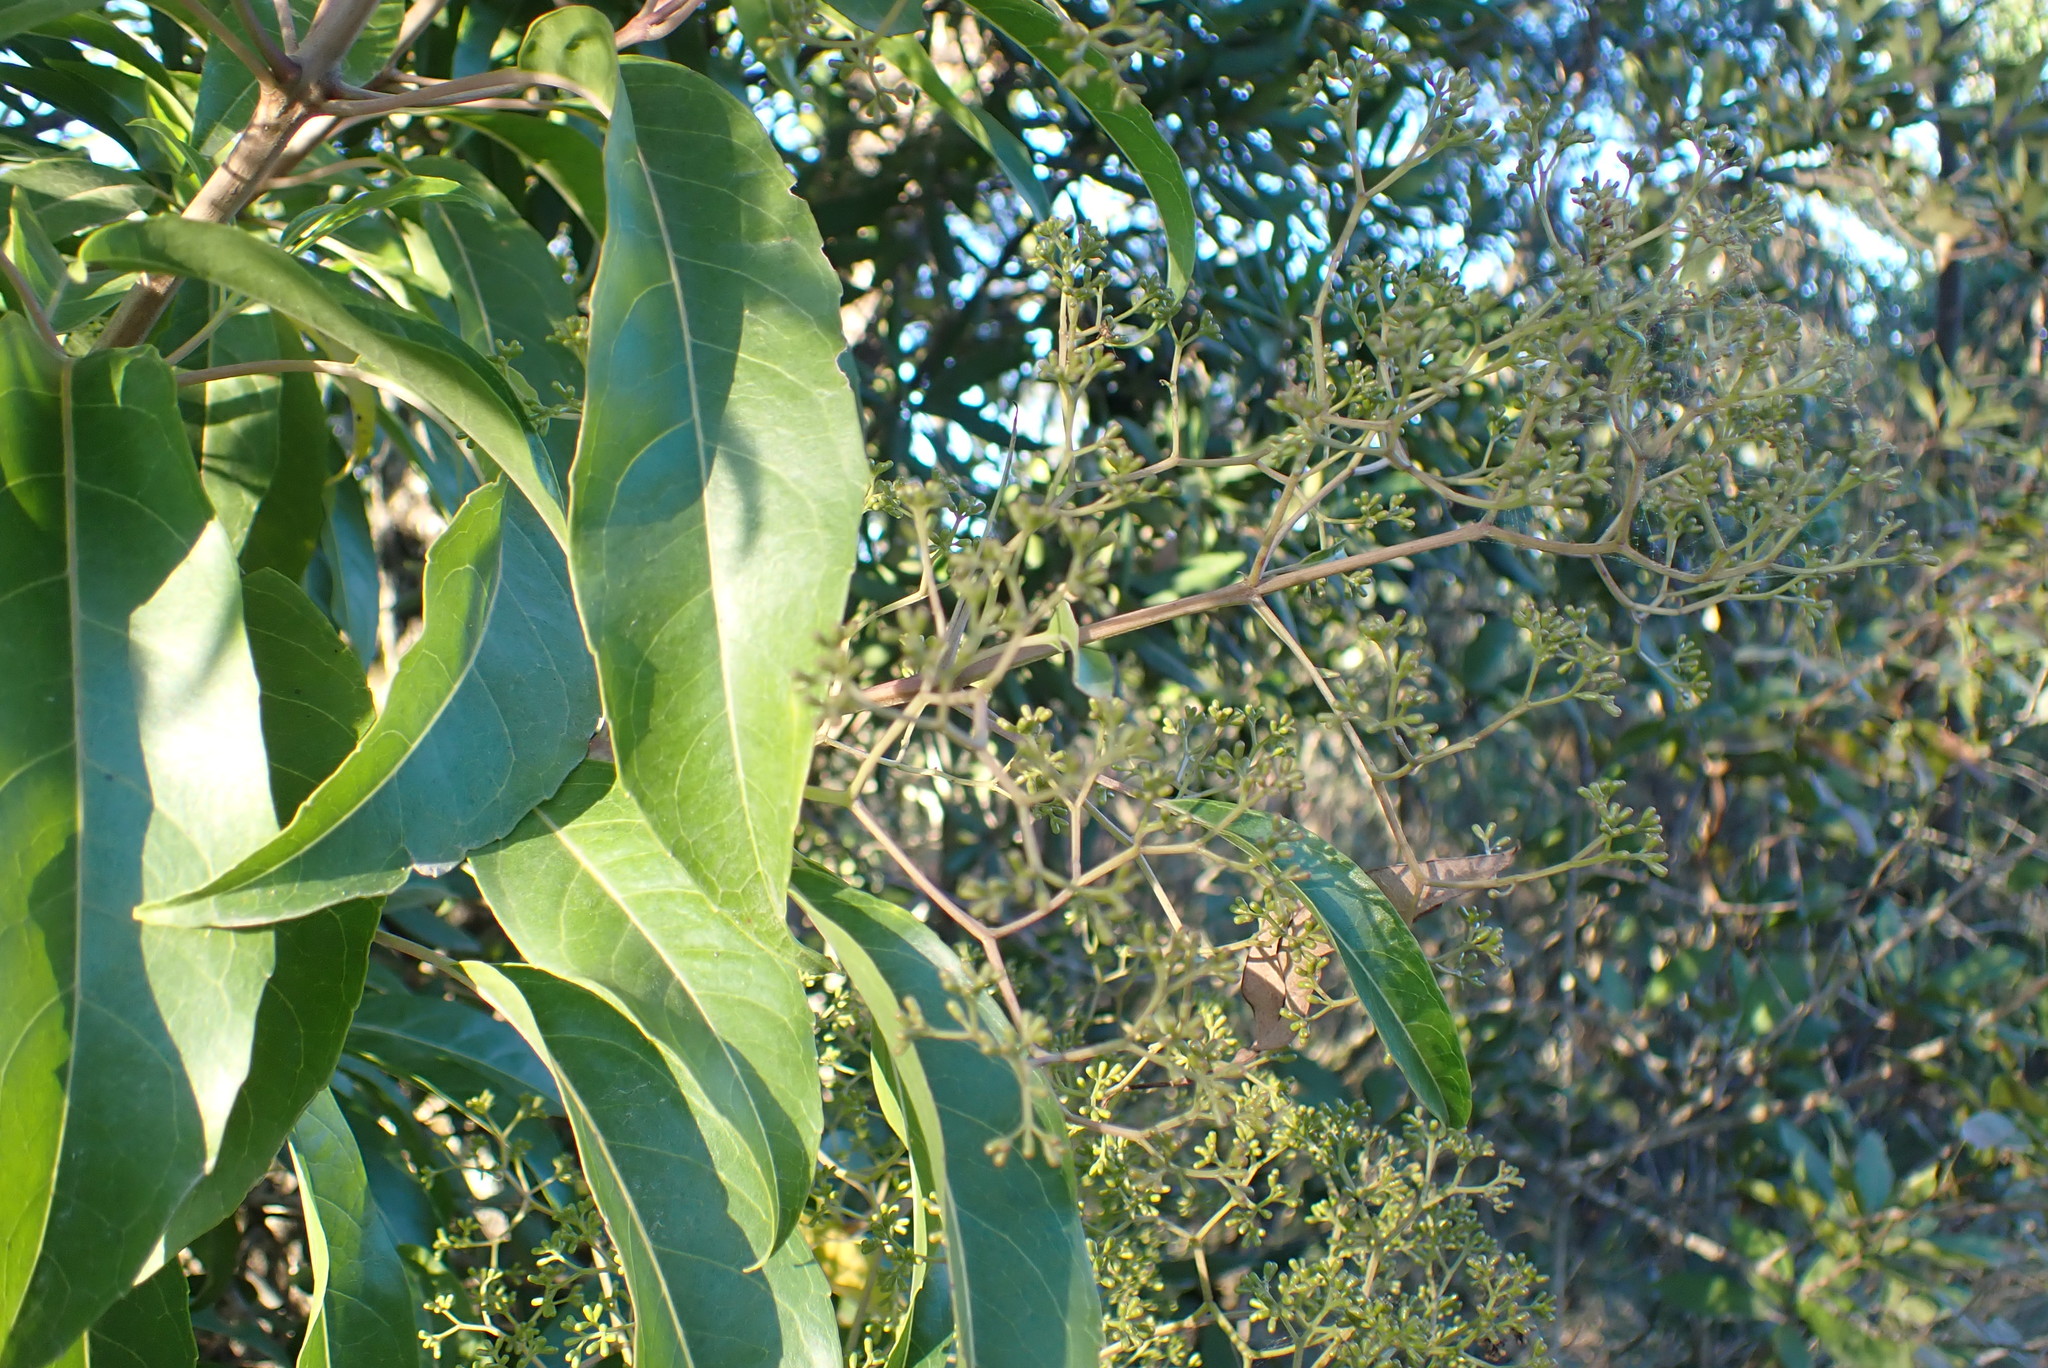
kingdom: Plantae
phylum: Tracheophyta
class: Magnoliopsida
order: Lamiales
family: Stilbaceae
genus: Nuxia
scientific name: Nuxia floribunda
